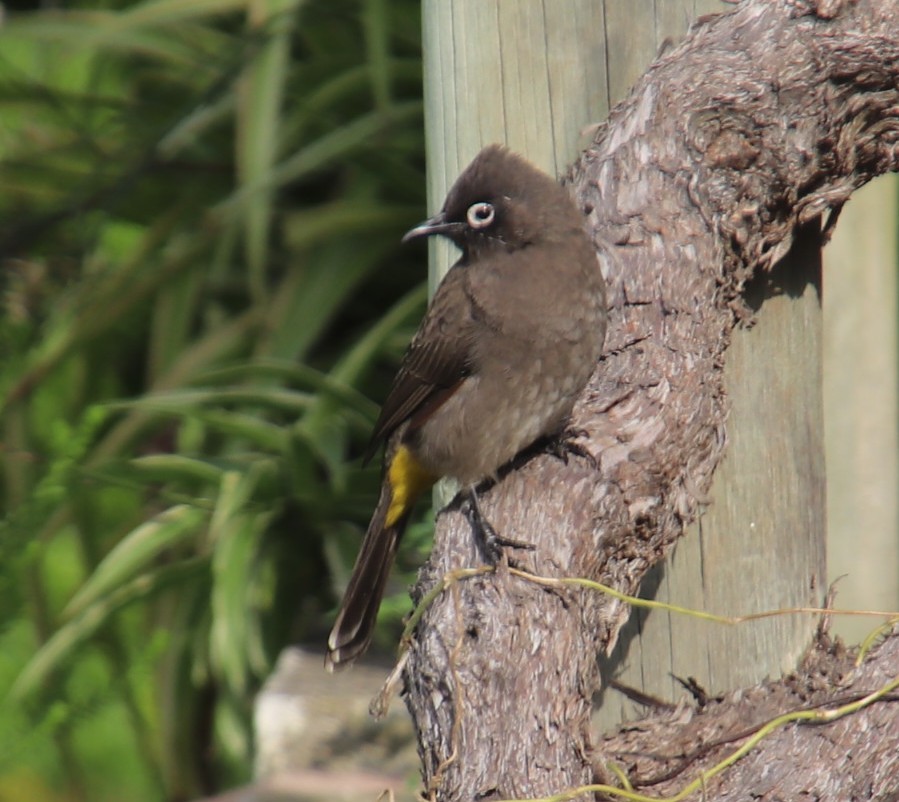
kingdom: Animalia
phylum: Chordata
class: Aves
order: Passeriformes
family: Pycnonotidae
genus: Pycnonotus
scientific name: Pycnonotus capensis
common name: Cape bulbul
